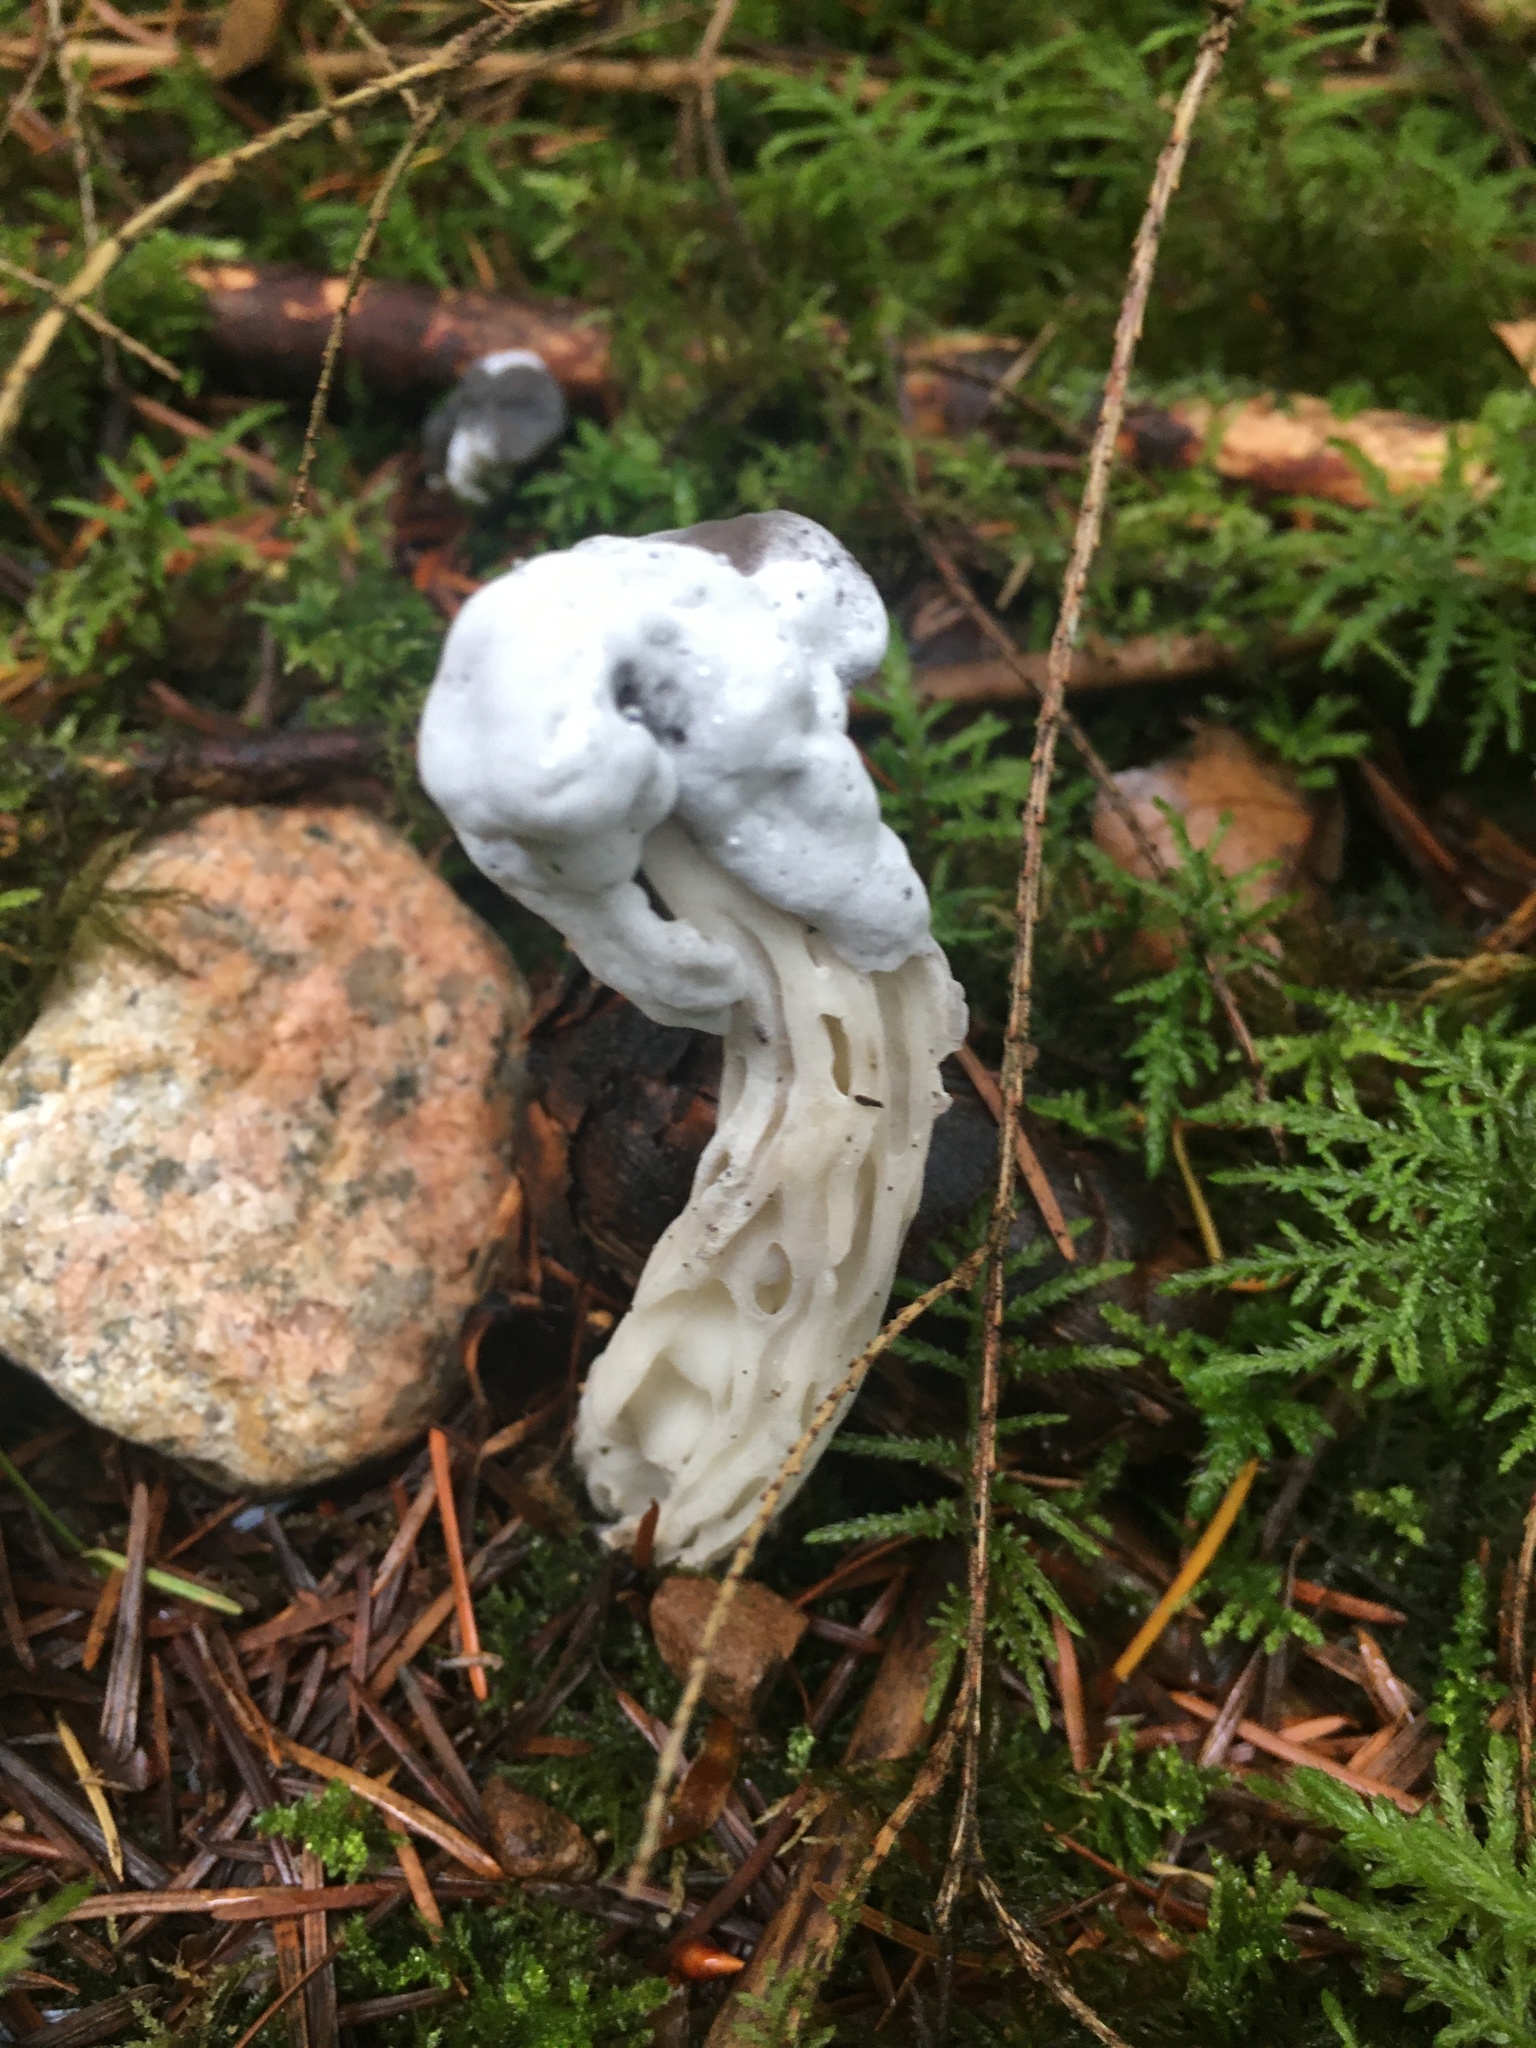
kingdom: Fungi
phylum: Ascomycota
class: Sordariomycetes
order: Hypocreales
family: Hypocreaceae
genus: Hypomyces
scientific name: Hypomyces cervinus
